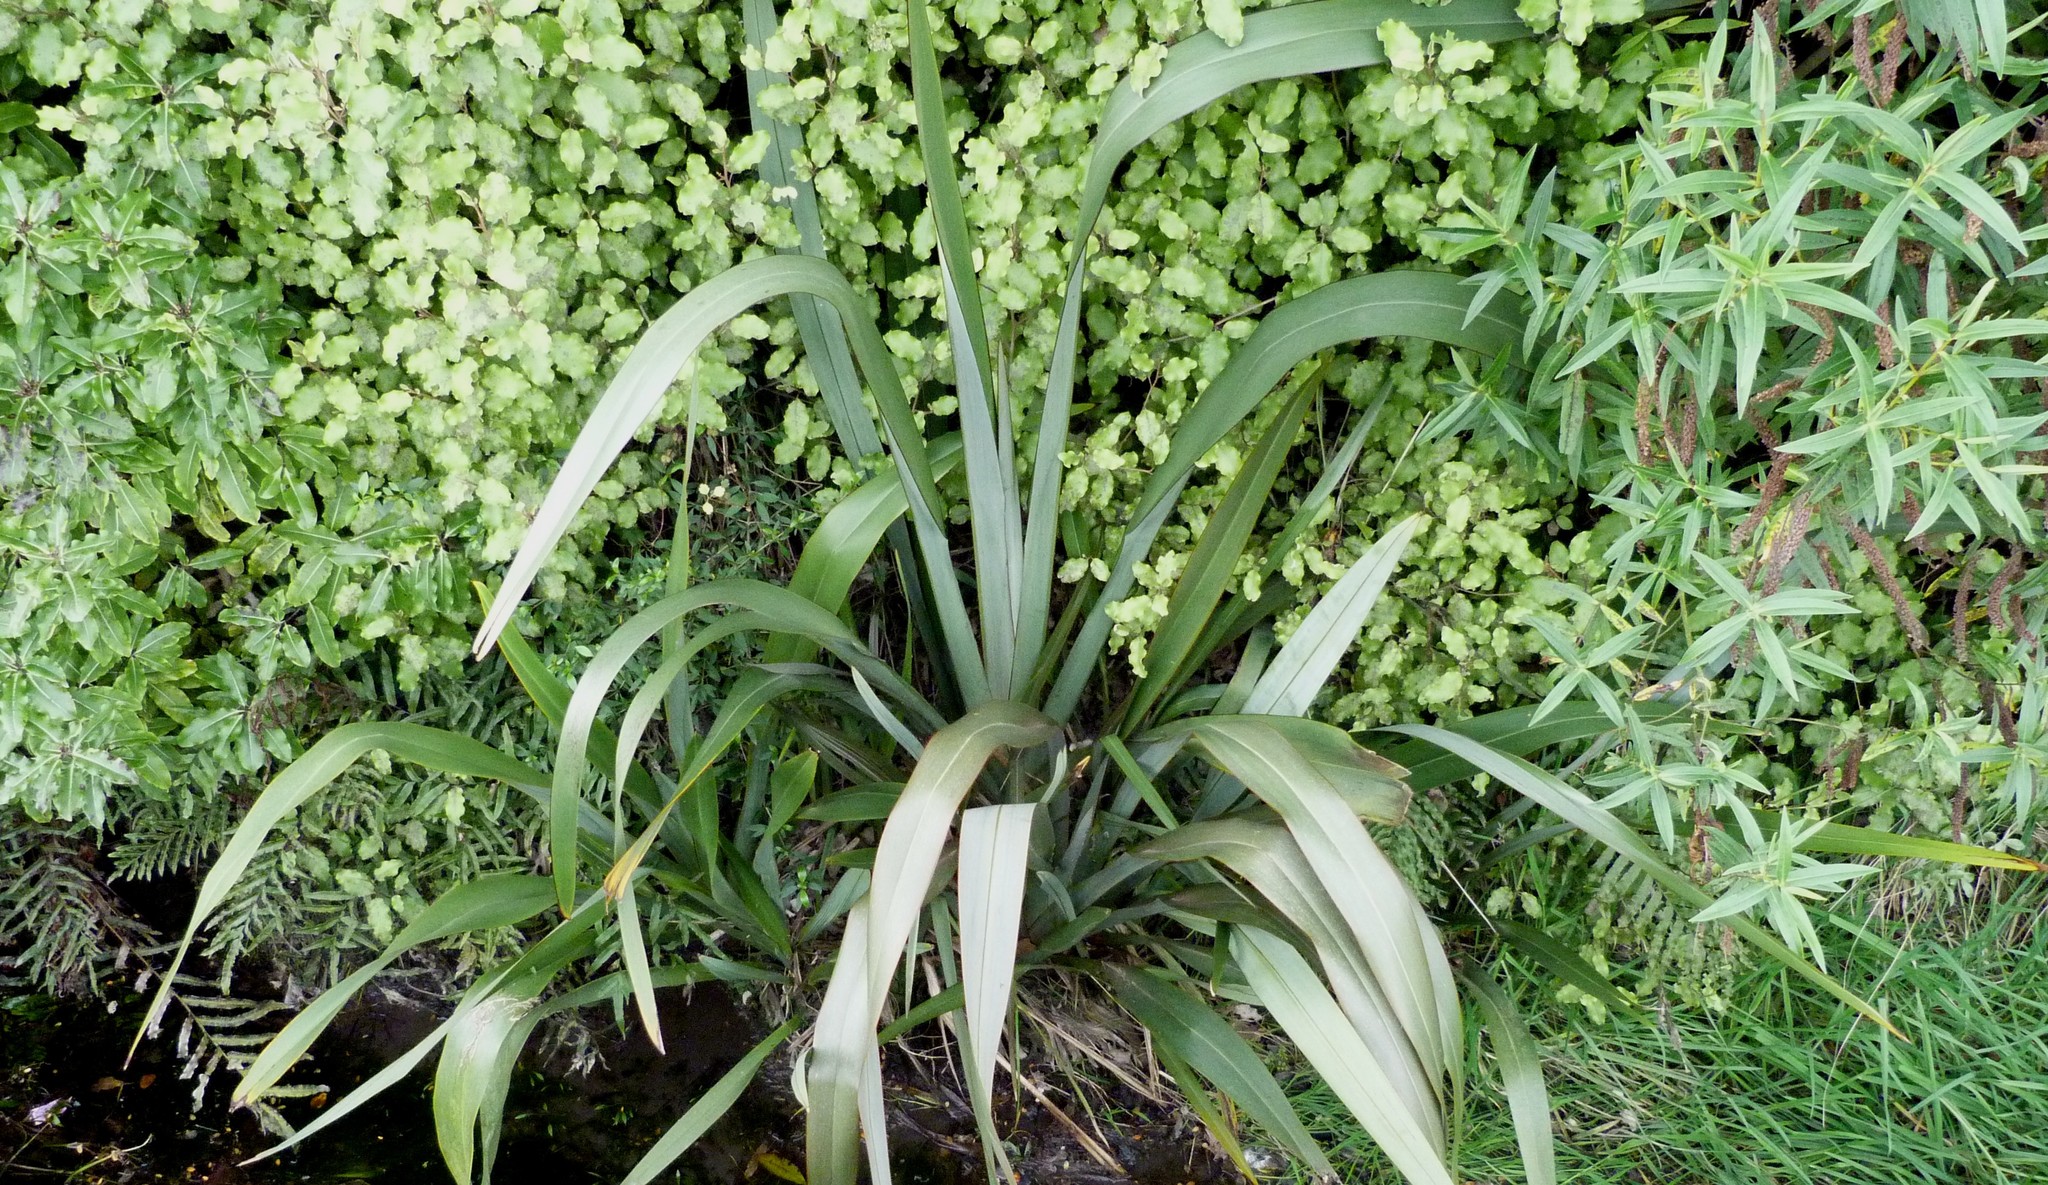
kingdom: Plantae
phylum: Tracheophyta
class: Liliopsida
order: Asparagales
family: Asphodelaceae
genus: Phormium
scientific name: Phormium tenax
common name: New zealand flax
